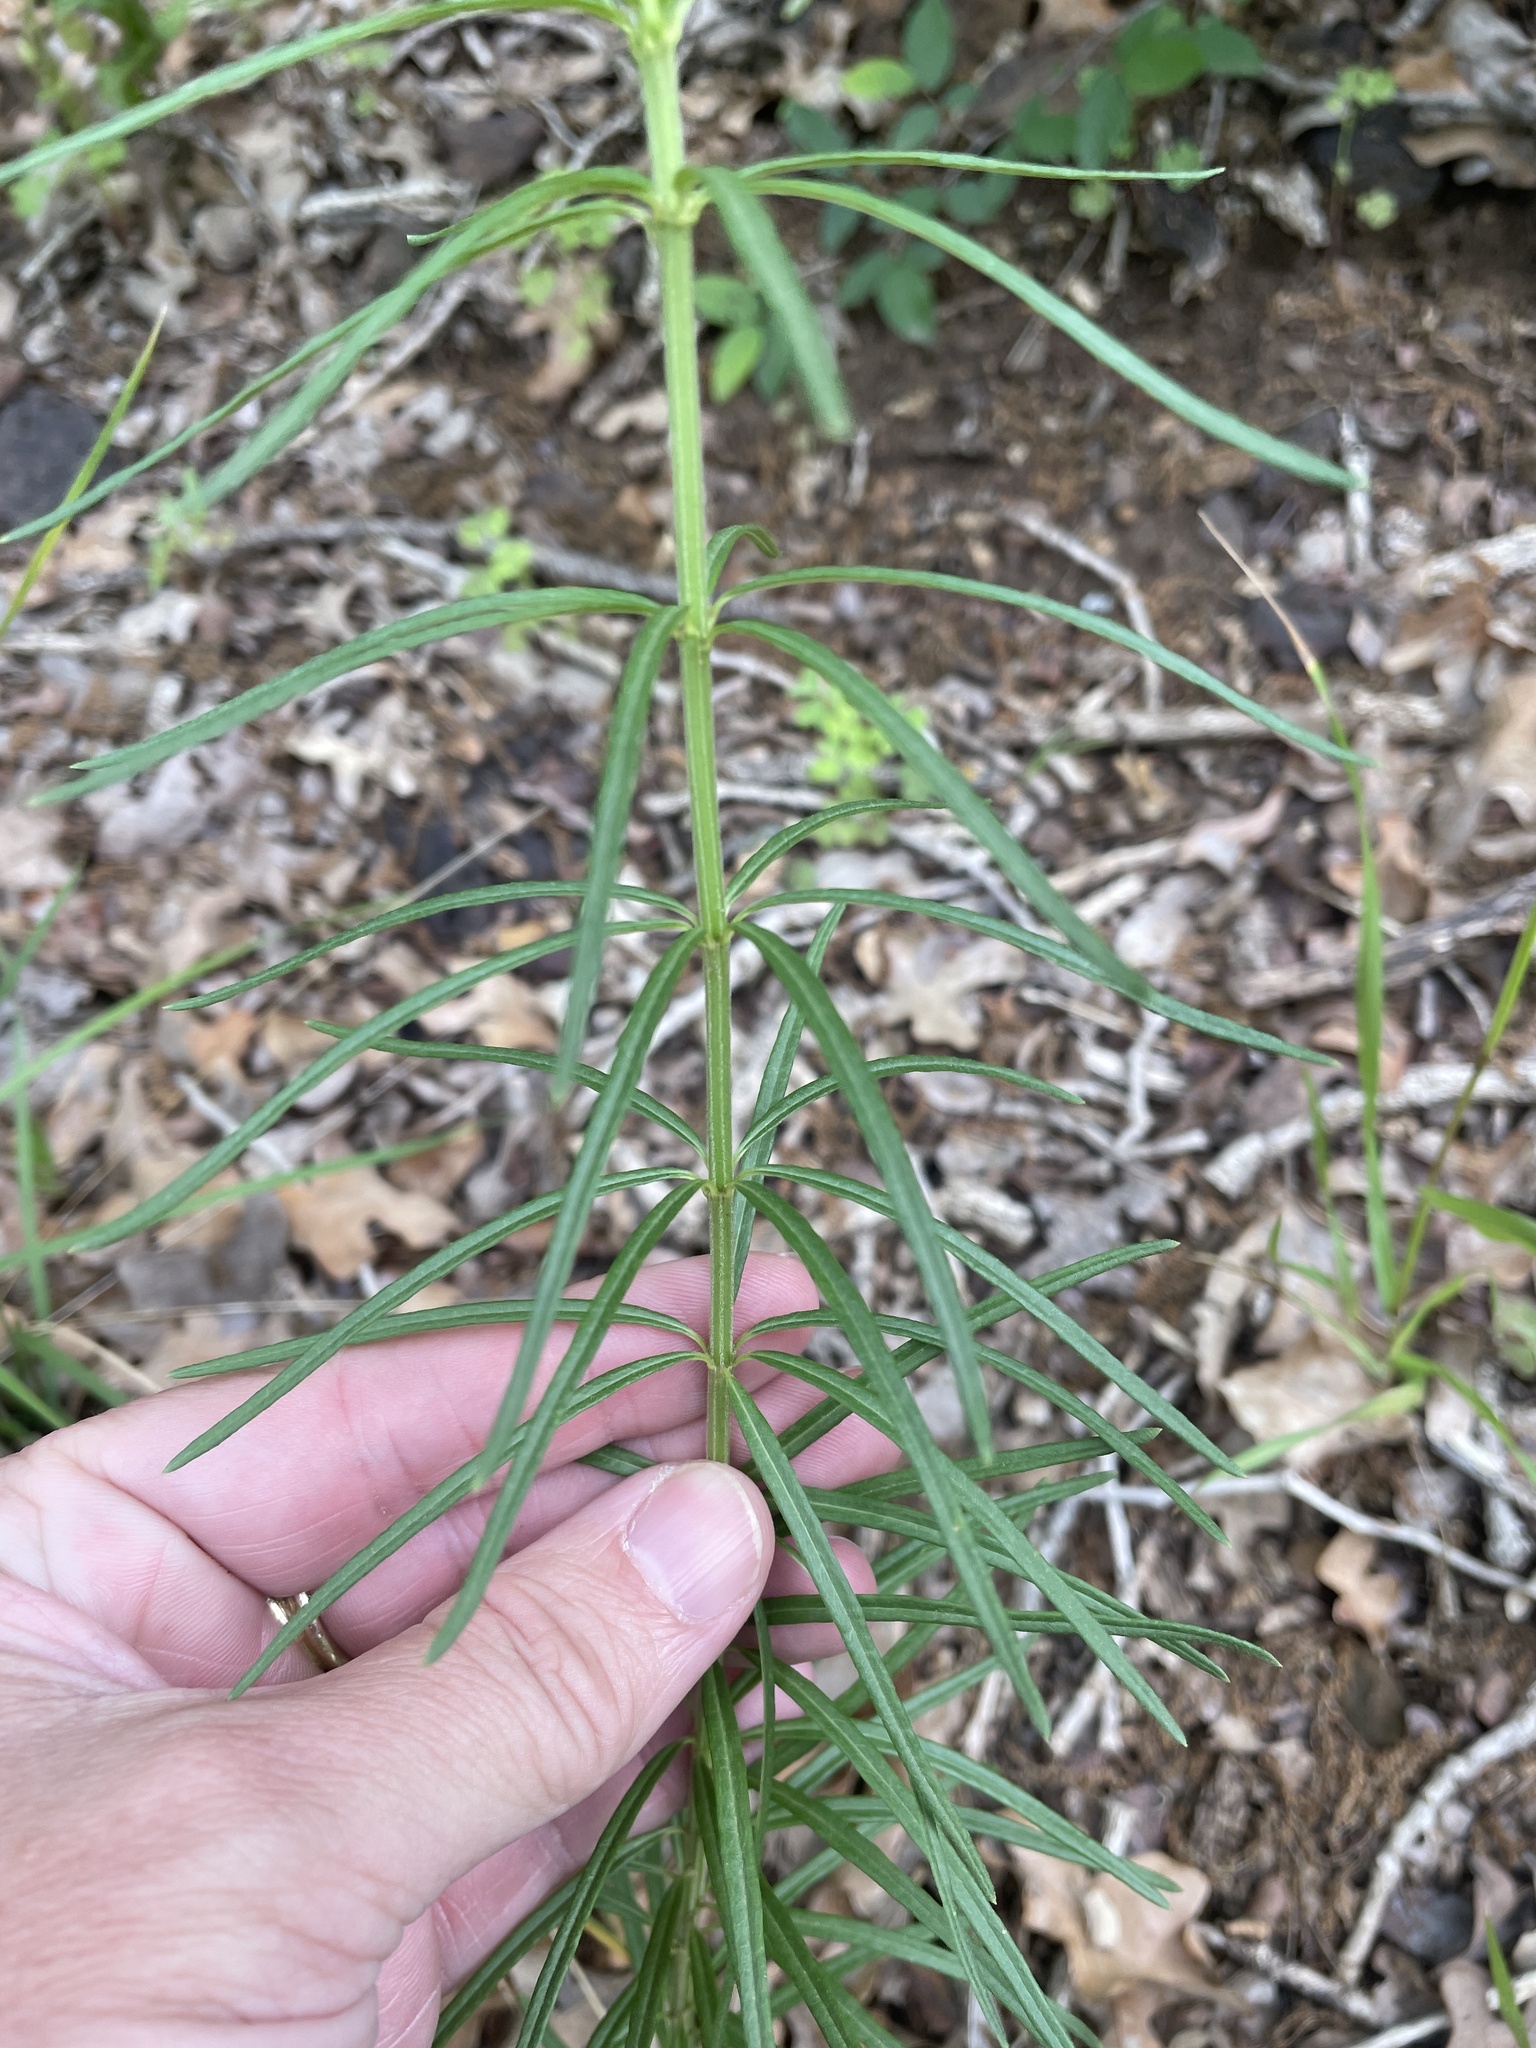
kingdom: Plantae
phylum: Tracheophyta
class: Magnoliopsida
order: Gentianales
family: Apocynaceae
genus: Asclepias
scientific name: Asclepias verticillata
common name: Eastern whorled milkweed
